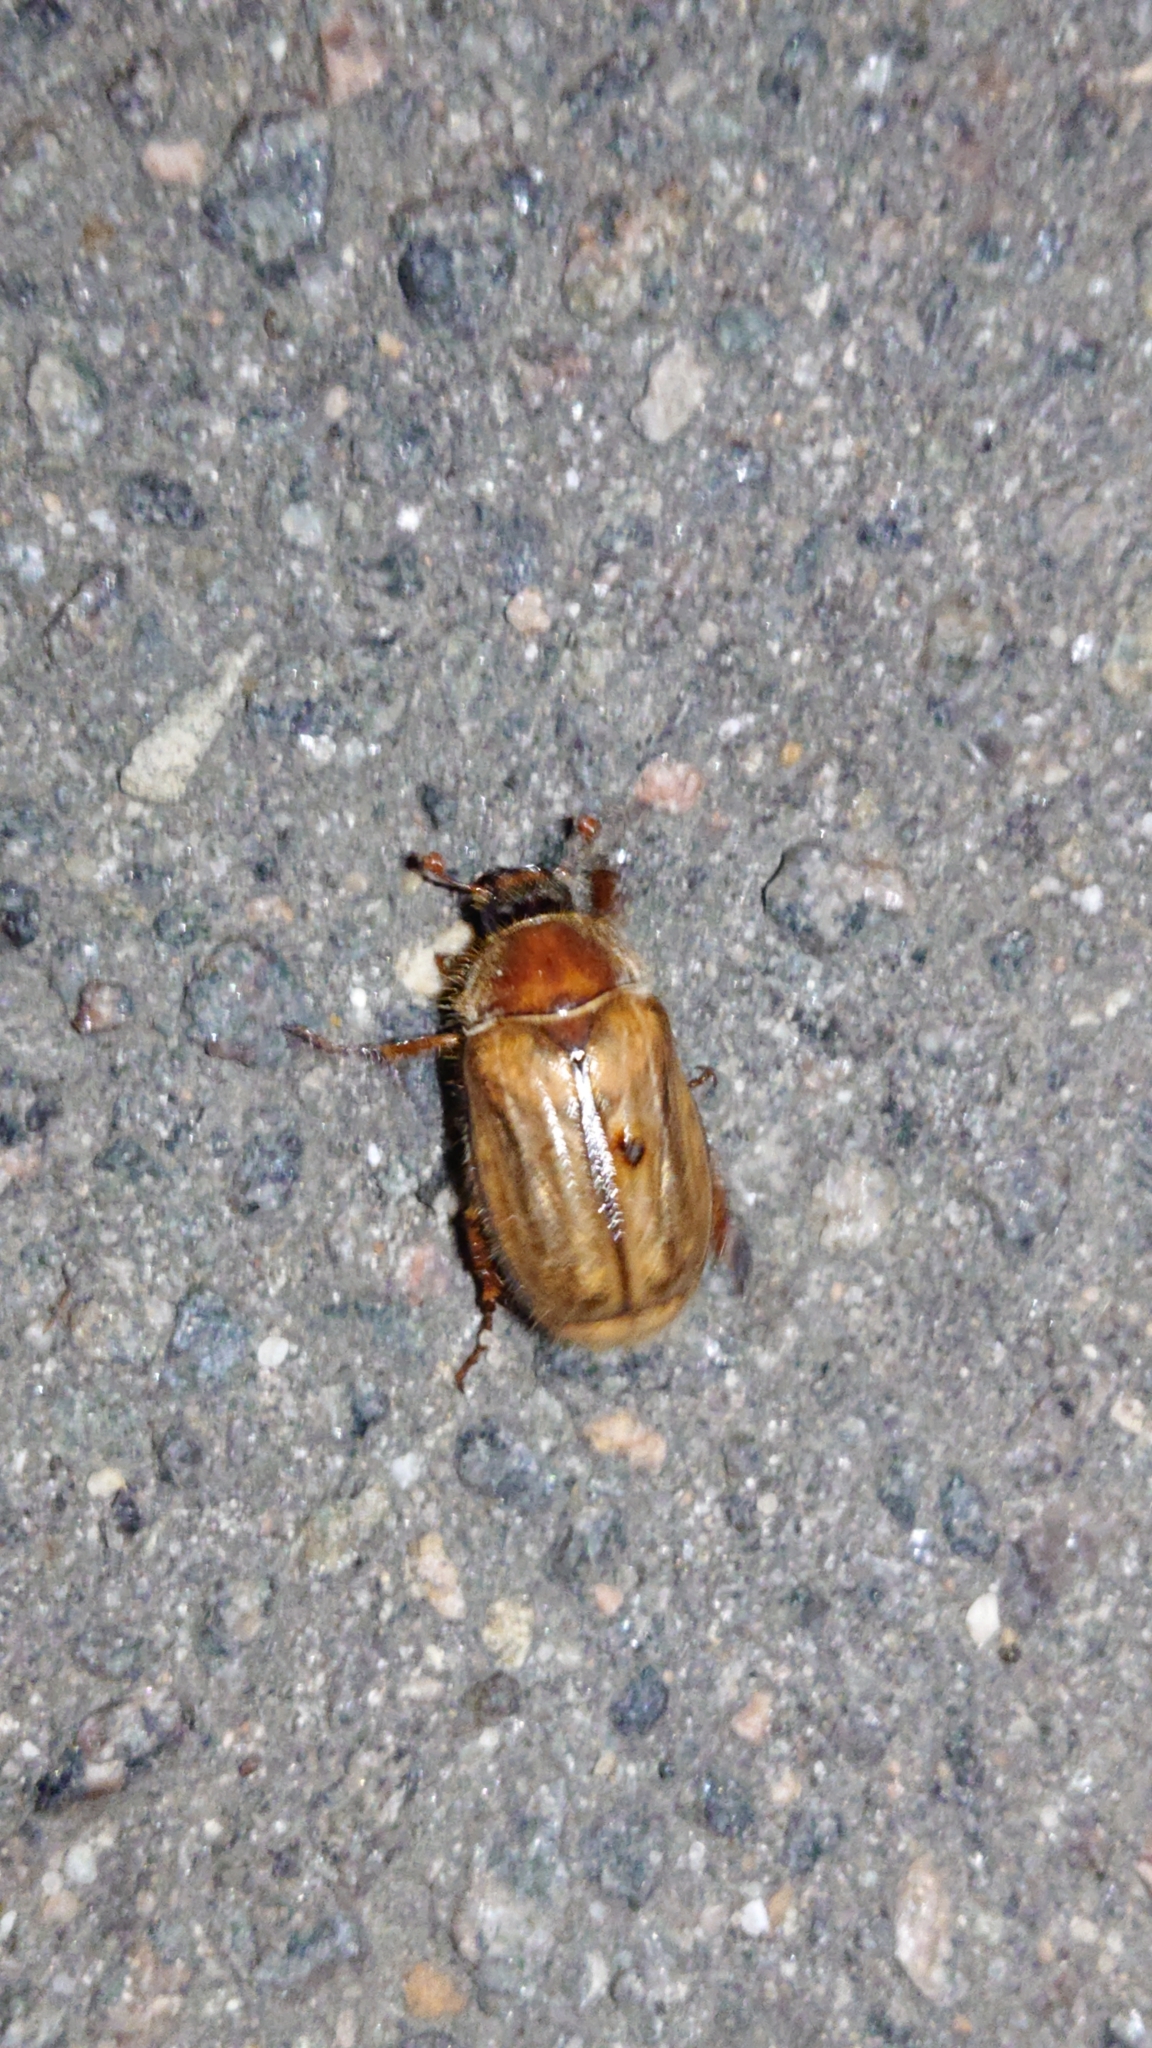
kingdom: Animalia
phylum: Arthropoda
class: Insecta
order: Coleoptera
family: Scarabaeidae
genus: Amphimallon
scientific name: Amphimallon solstitiale
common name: Summer chafer
